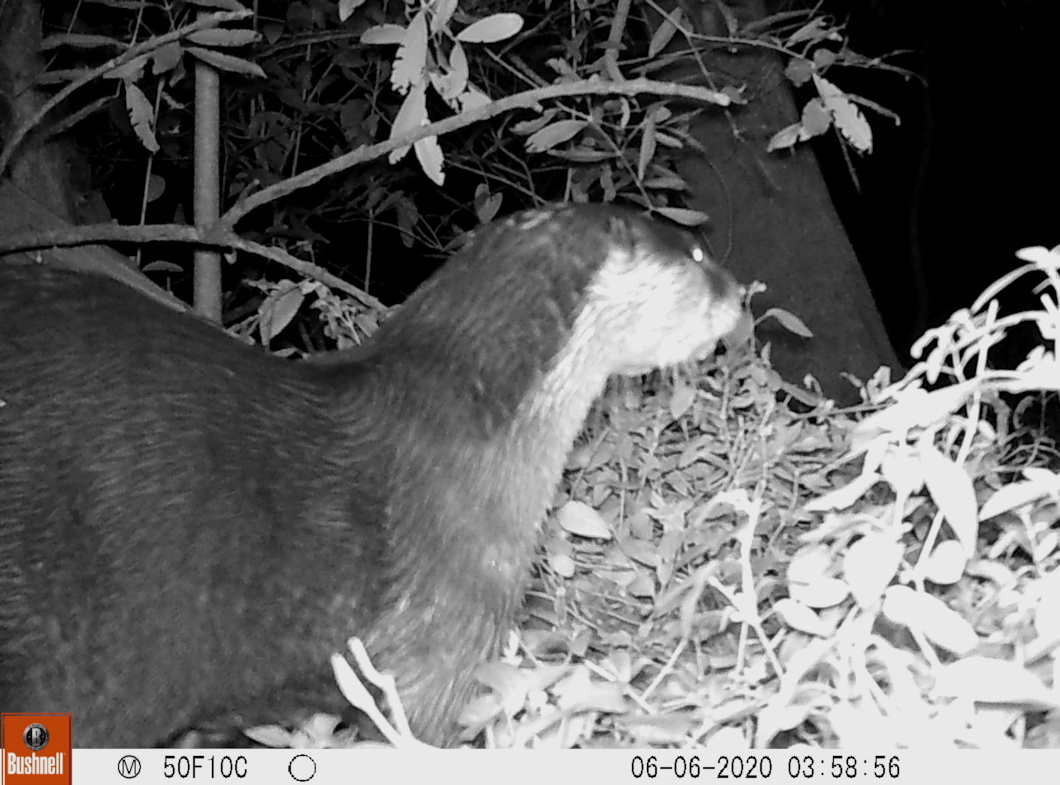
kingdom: Animalia
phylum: Chordata
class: Mammalia
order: Carnivora
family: Mustelidae
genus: Aonyx
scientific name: Aonyx capensis
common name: African clawless otter
